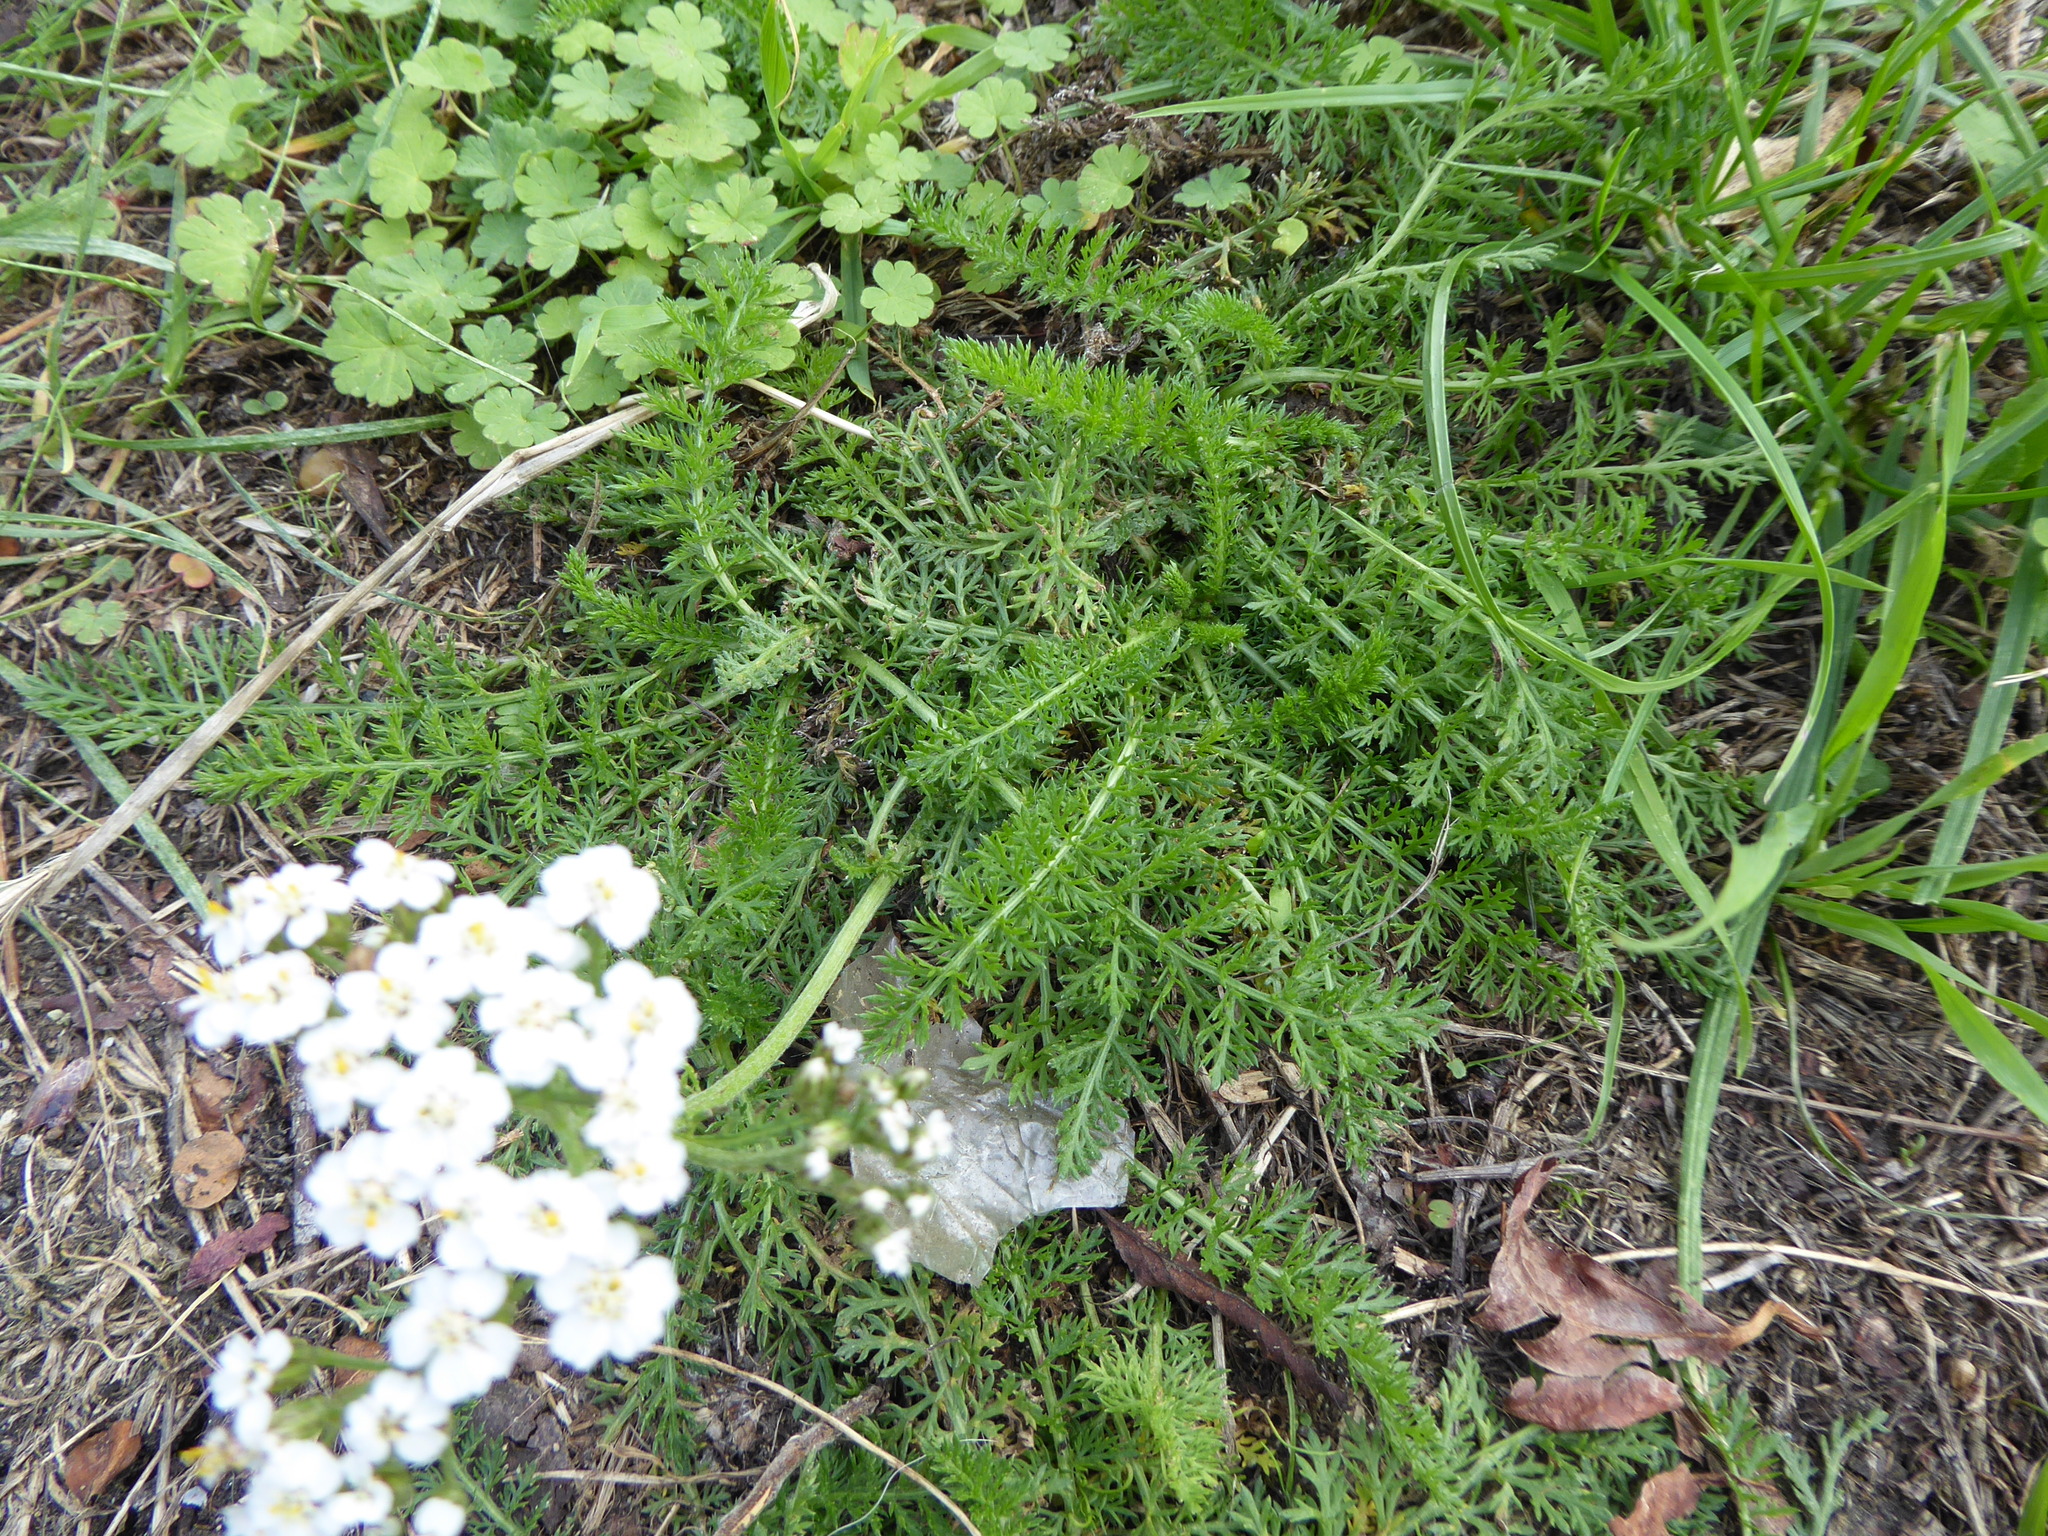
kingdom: Plantae
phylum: Tracheophyta
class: Magnoliopsida
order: Asterales
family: Asteraceae
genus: Achillea
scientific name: Achillea millefolium
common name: Yarrow
